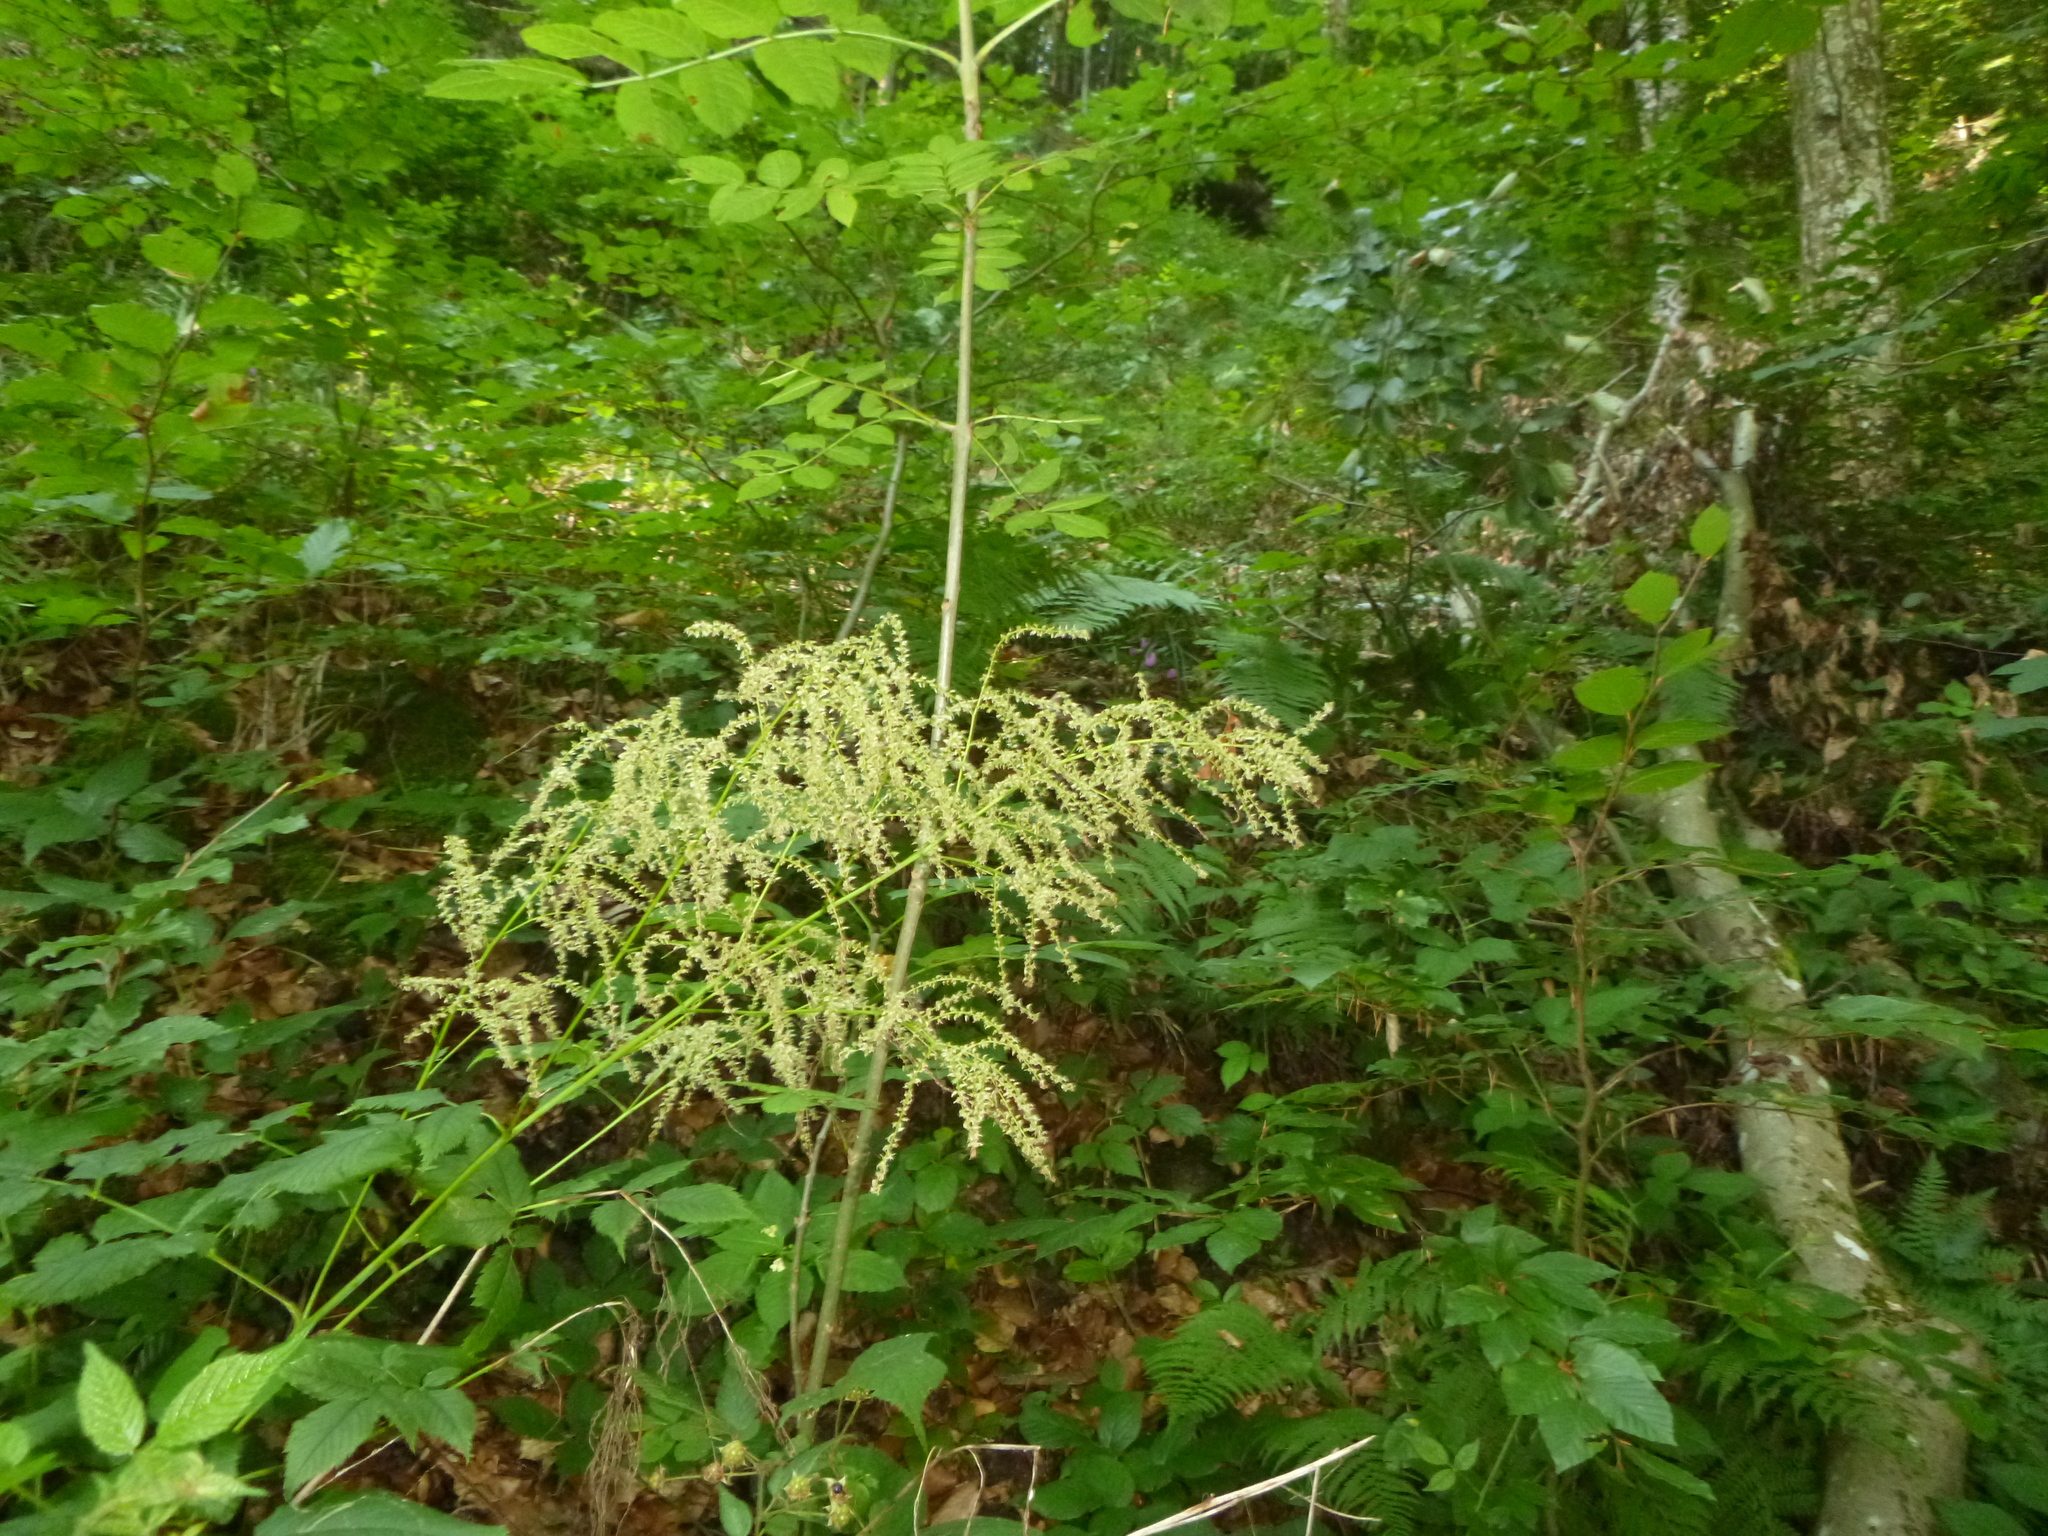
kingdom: Plantae
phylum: Tracheophyta
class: Magnoliopsida
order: Rosales
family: Rosaceae
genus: Aruncus
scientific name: Aruncus dioicus
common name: Buck's-beard
